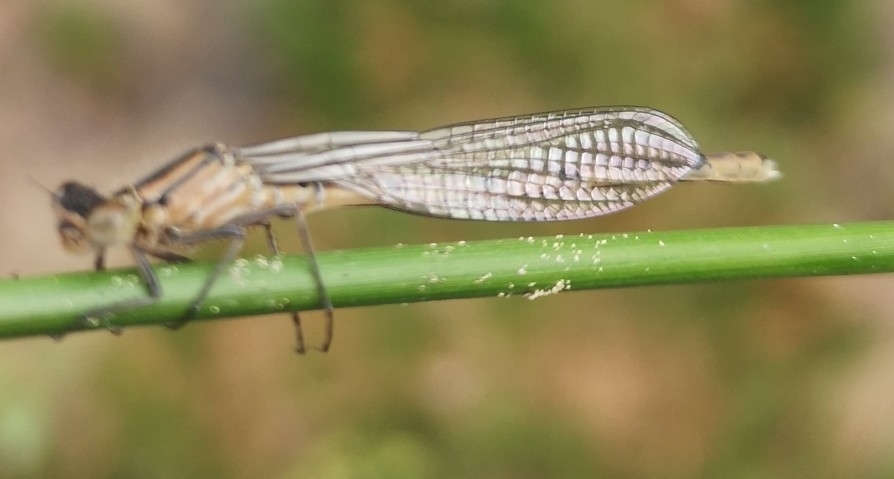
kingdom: Animalia
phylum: Arthropoda
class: Insecta
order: Odonata
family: Coenagrionidae
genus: Enallagma
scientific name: Enallagma cyathigerum
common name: Common blue damselfly
